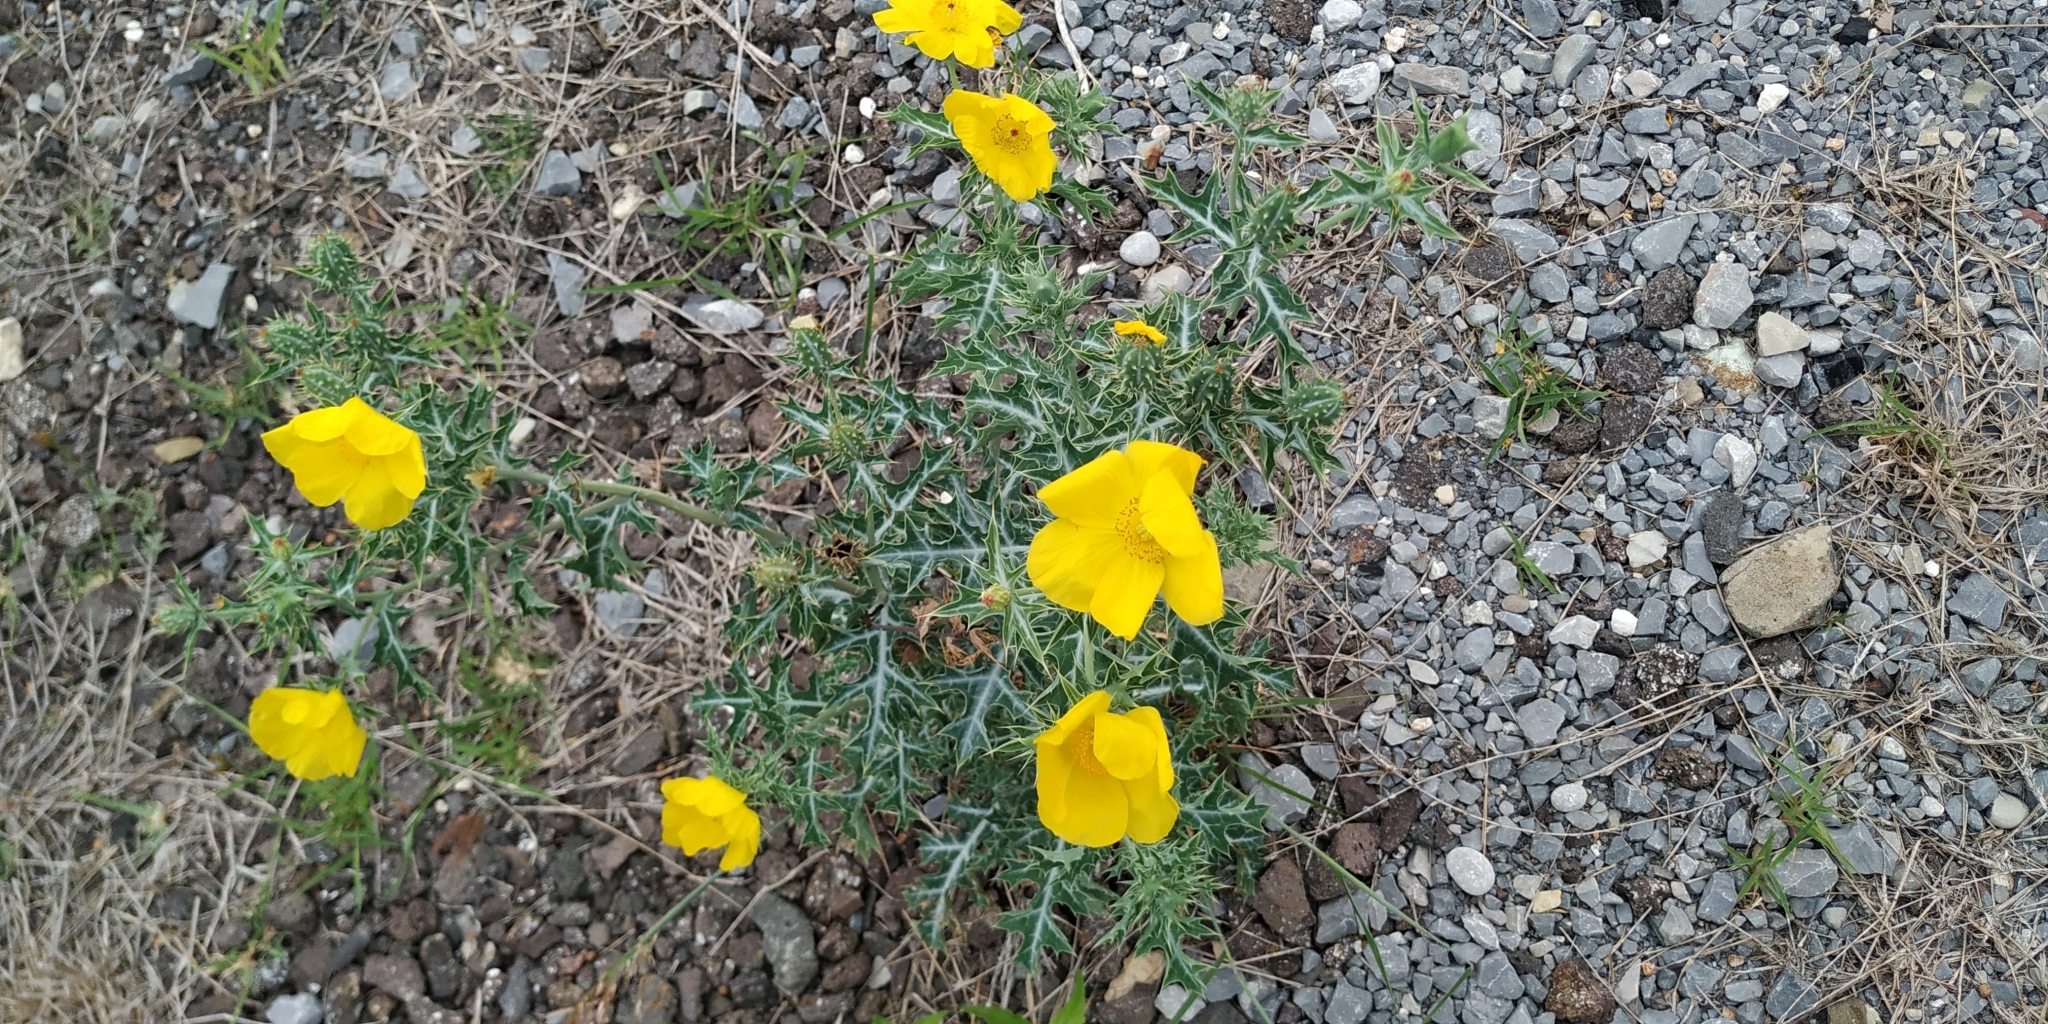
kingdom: Plantae
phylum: Tracheophyta
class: Magnoliopsida
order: Ranunculales
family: Papaveraceae
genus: Argemone
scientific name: Argemone mexicana
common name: Mexican poppy
